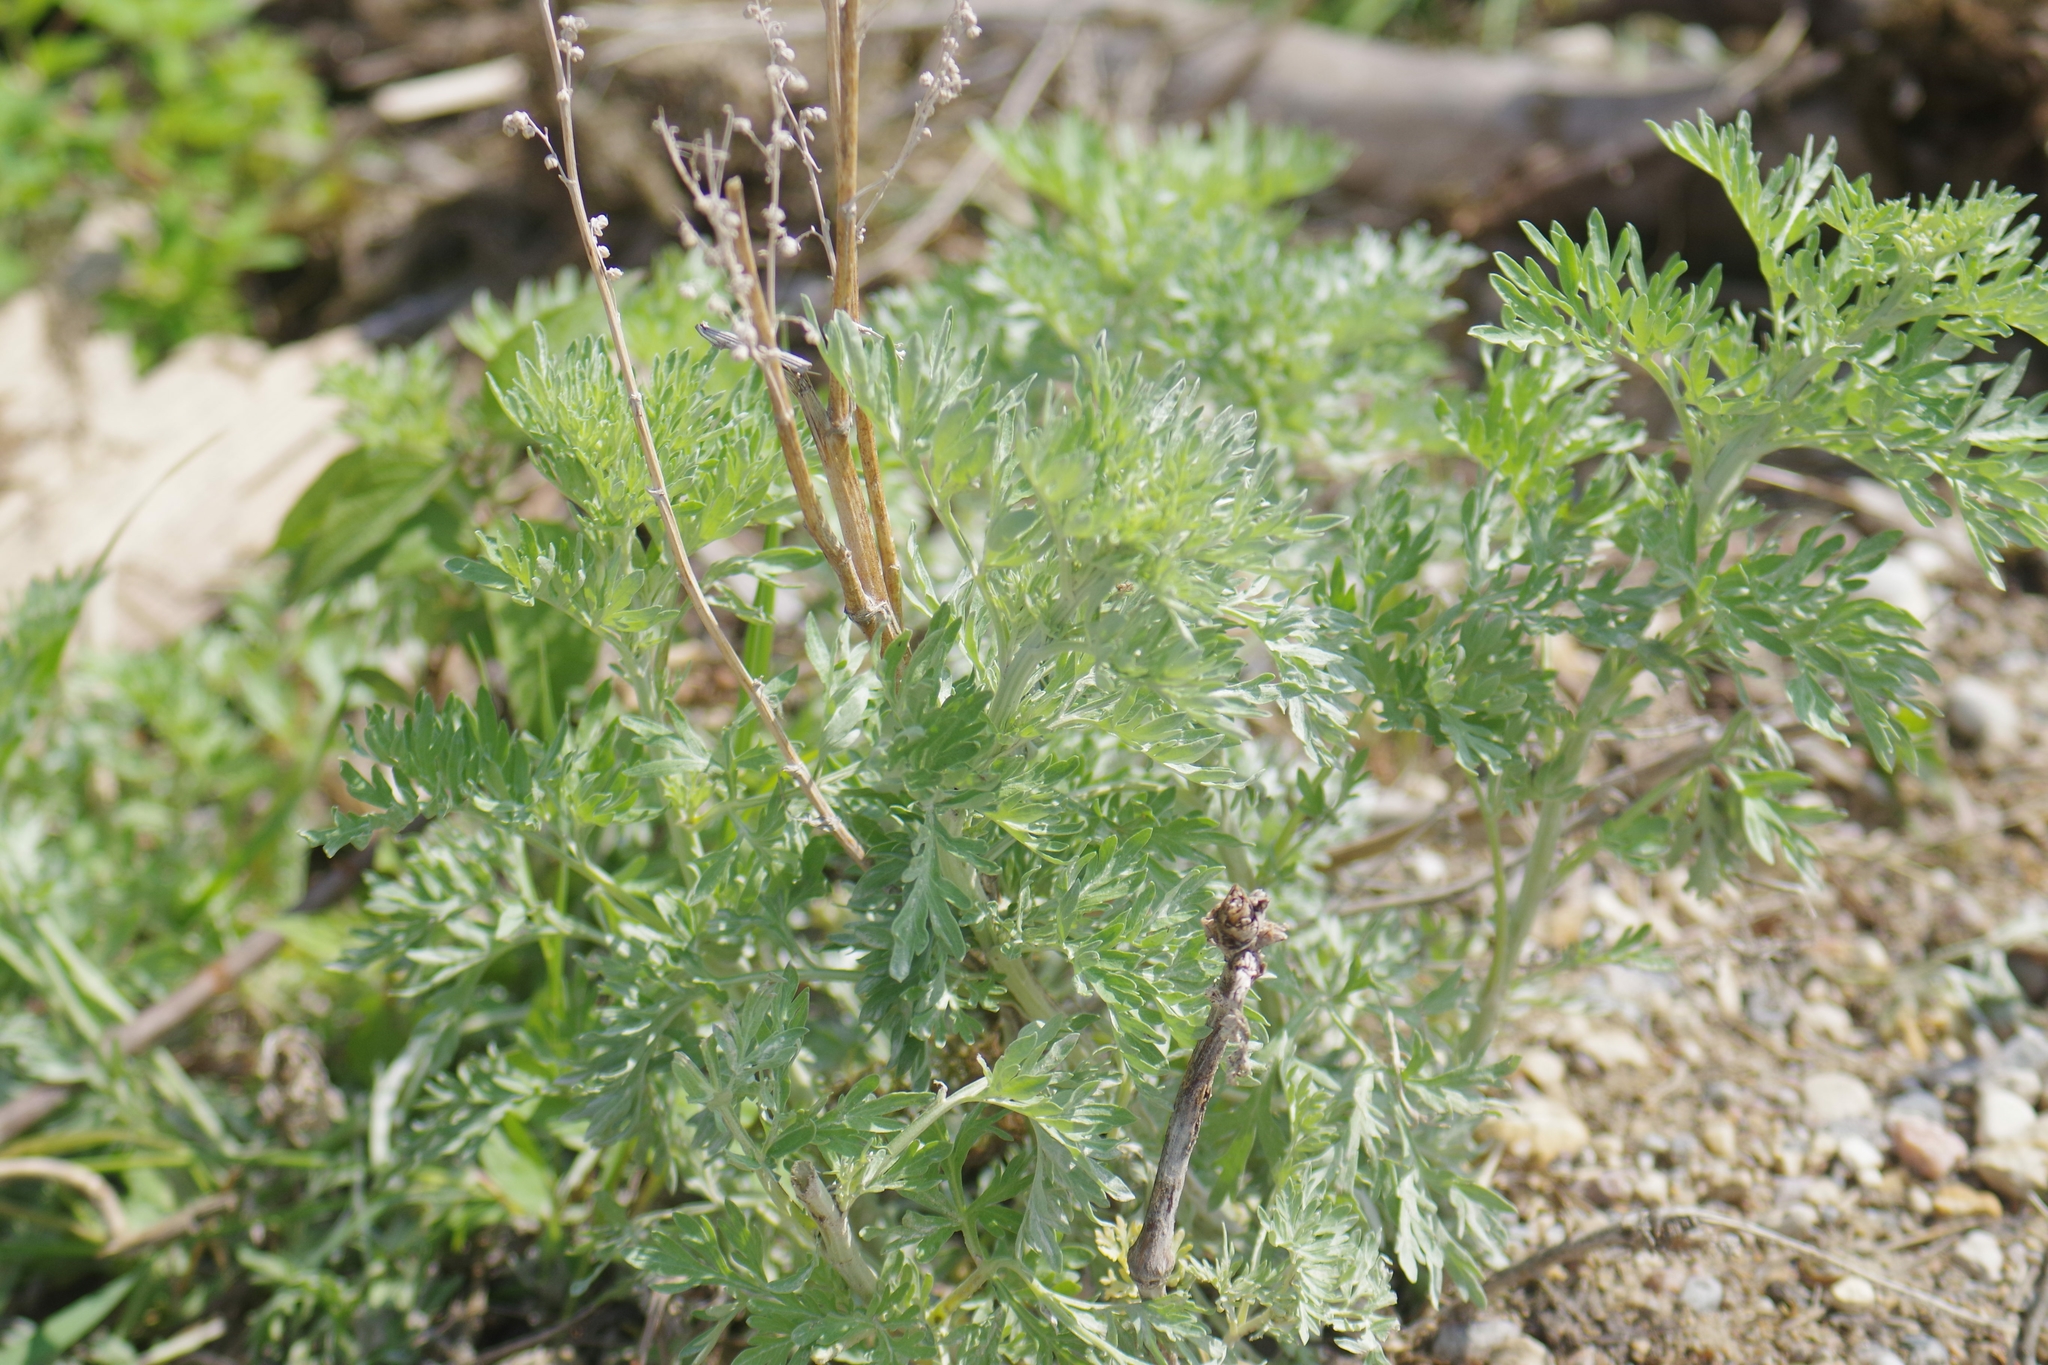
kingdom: Plantae
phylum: Tracheophyta
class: Magnoliopsida
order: Asterales
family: Asteraceae
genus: Artemisia
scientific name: Artemisia absinthium
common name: Wormwood
